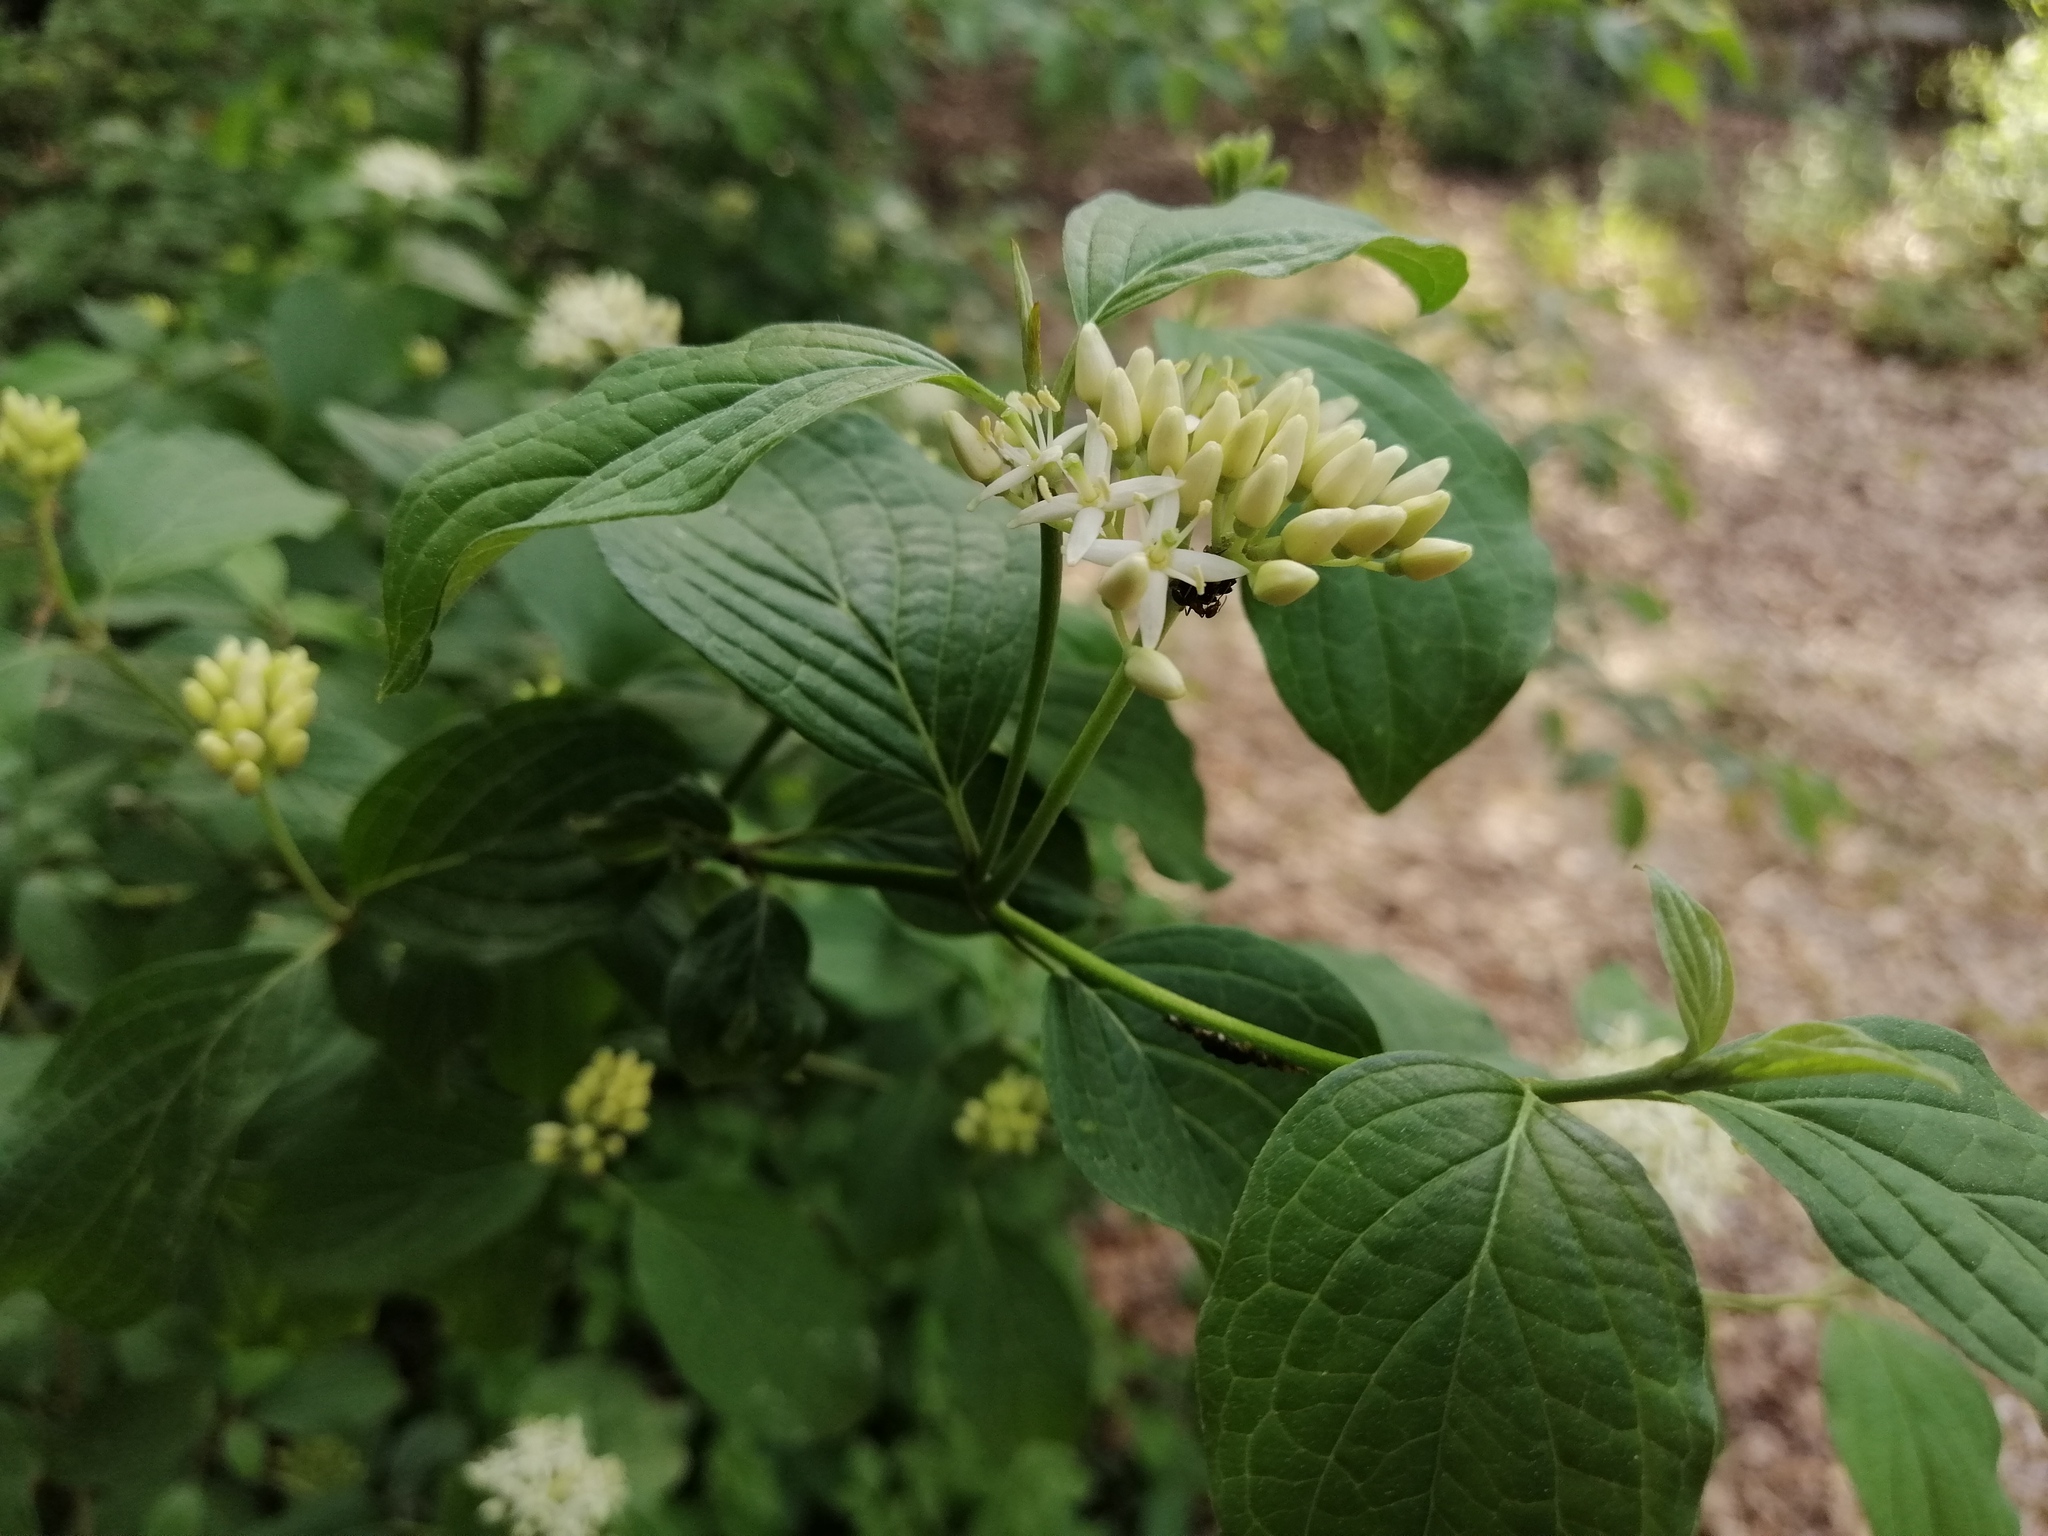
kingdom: Plantae
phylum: Tracheophyta
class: Magnoliopsida
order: Cornales
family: Cornaceae
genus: Cornus
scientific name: Cornus sanguinea
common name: Dogwood
